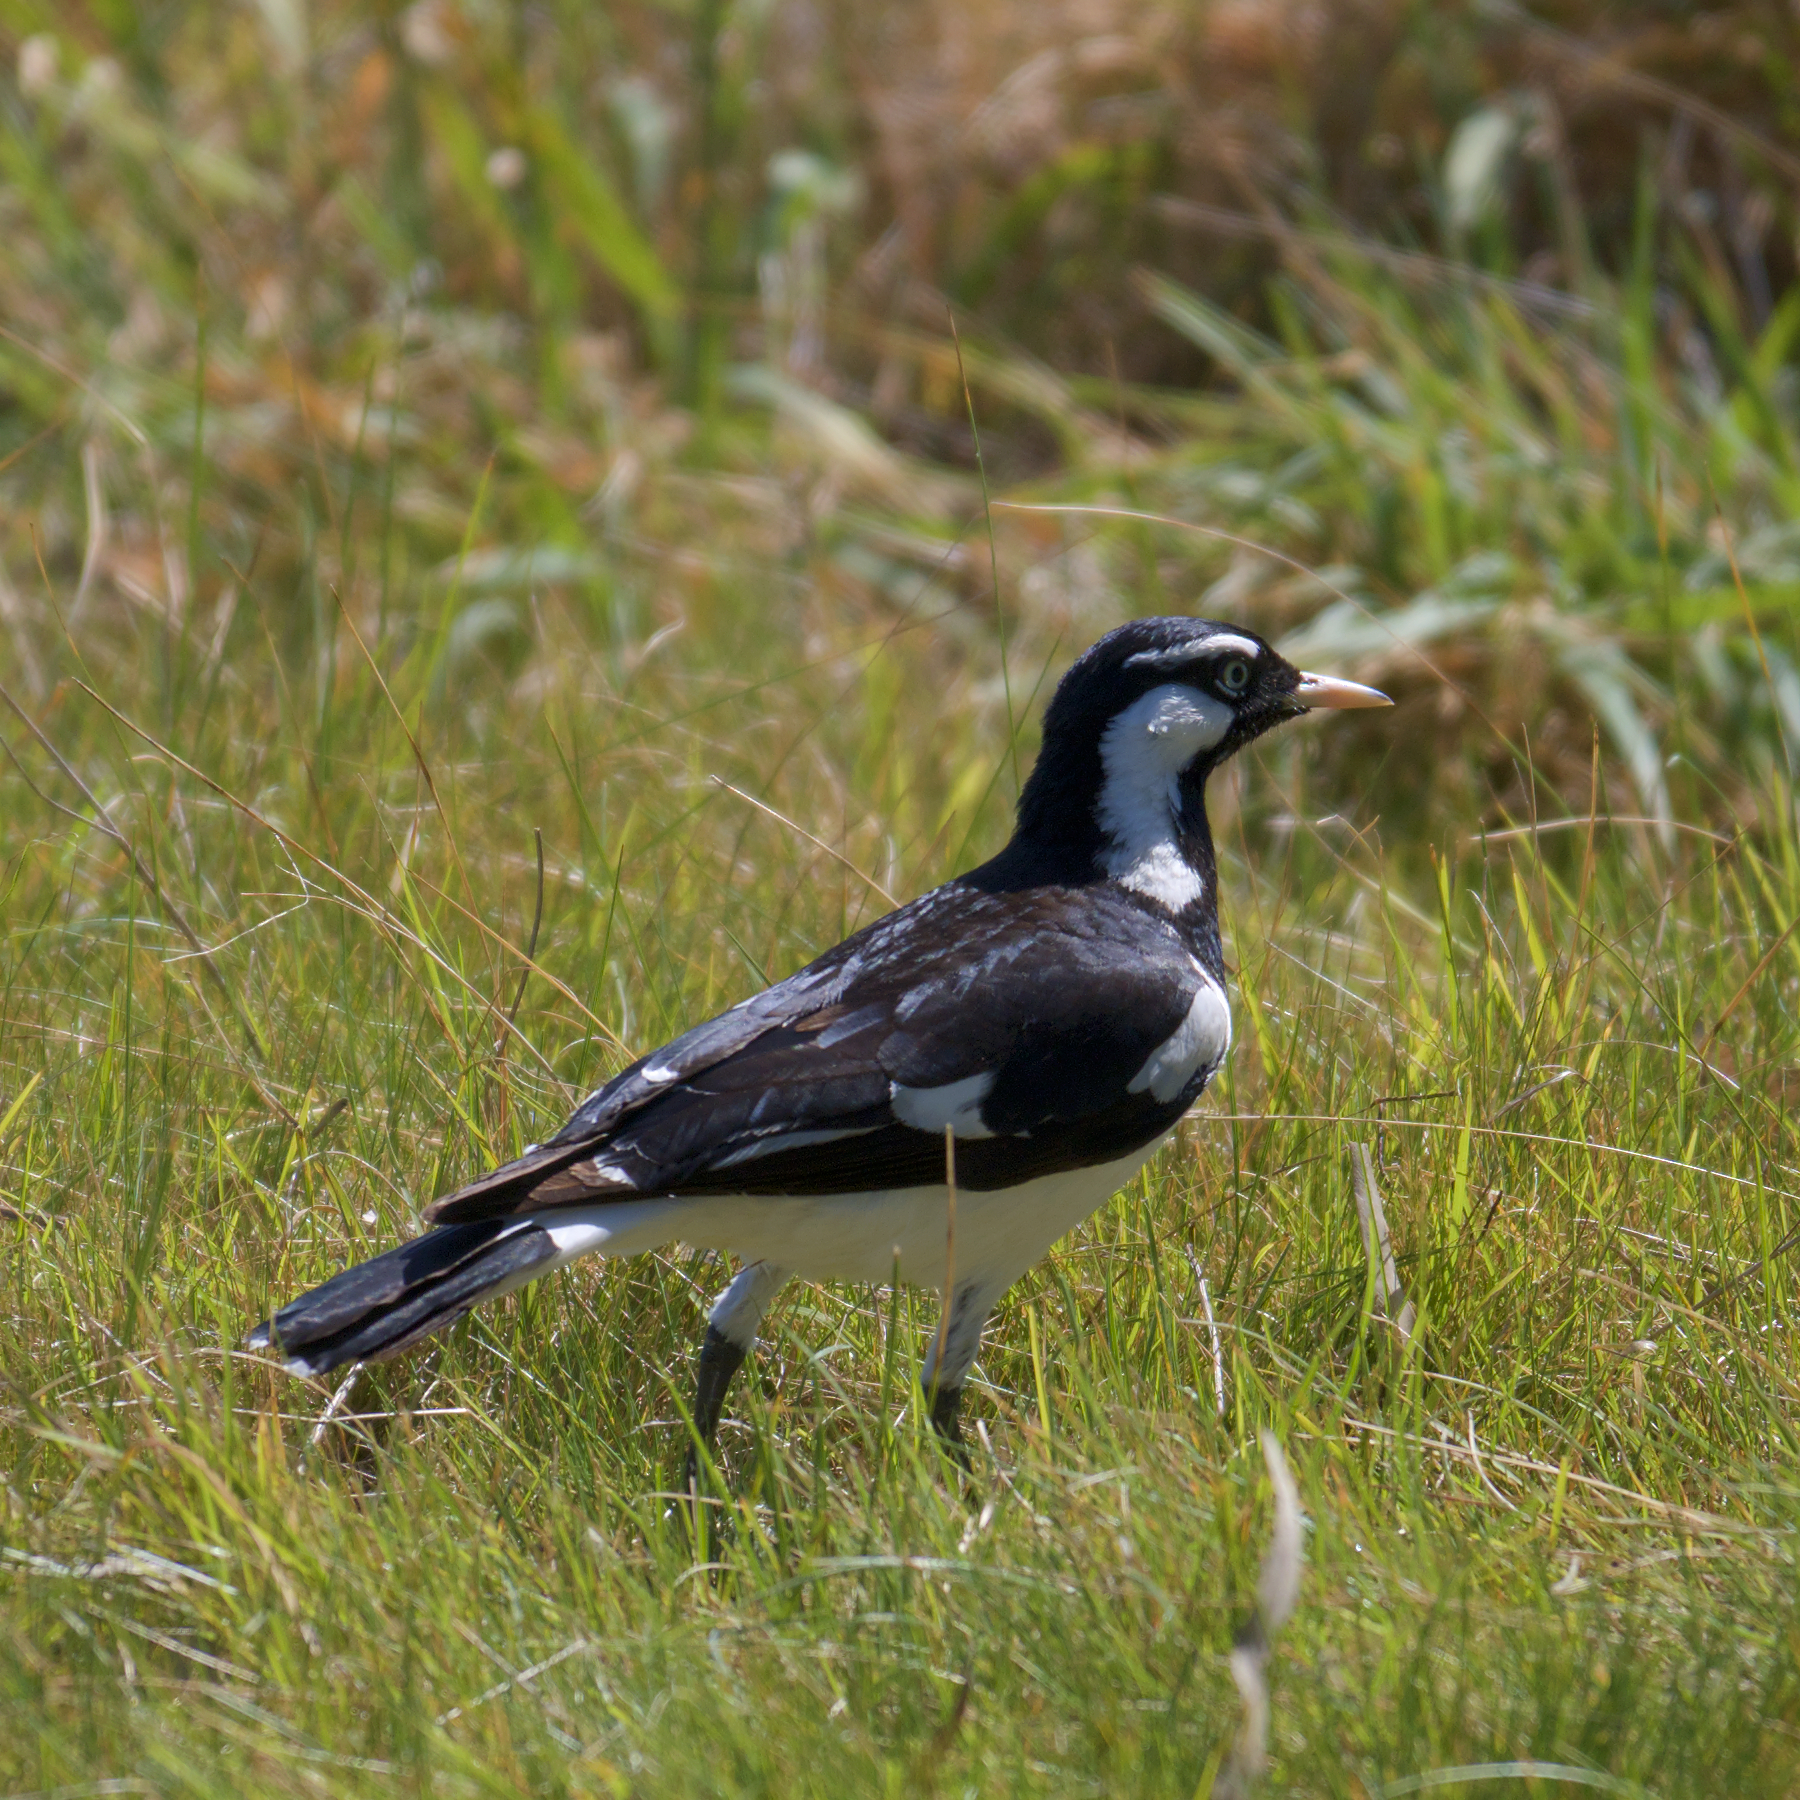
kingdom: Animalia
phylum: Chordata
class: Aves
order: Passeriformes
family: Monarchidae
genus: Grallina
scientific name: Grallina cyanoleuca
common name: Magpie-lark
